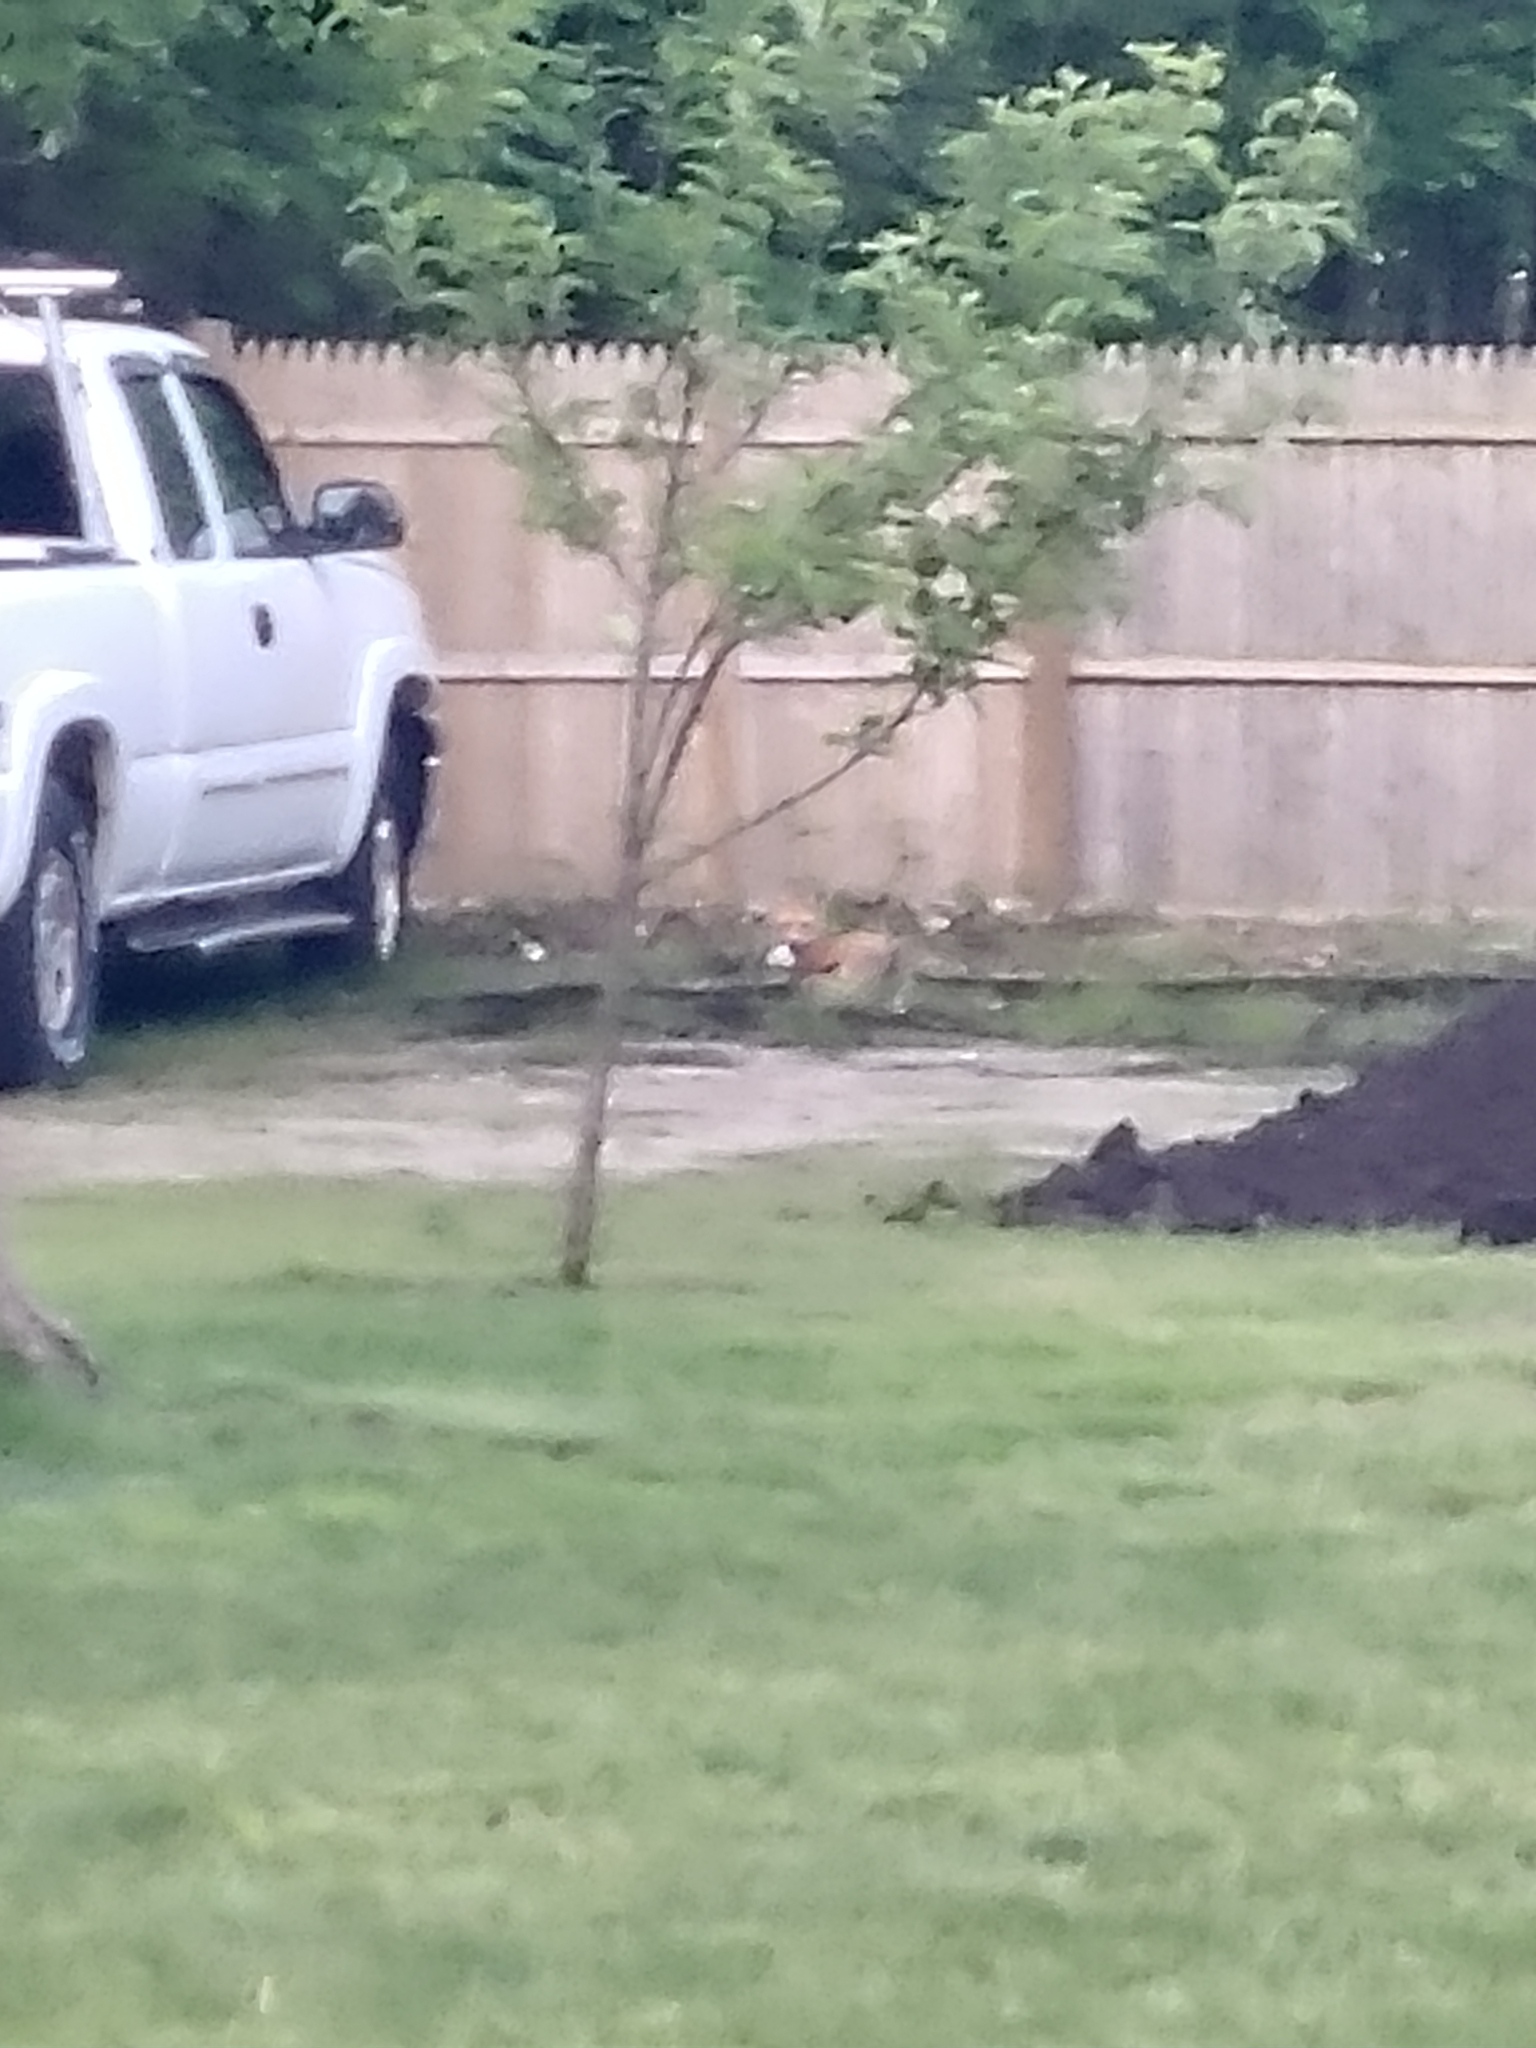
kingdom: Animalia
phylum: Chordata
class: Mammalia
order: Carnivora
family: Canidae
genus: Vulpes
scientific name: Vulpes vulpes
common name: Red fox
